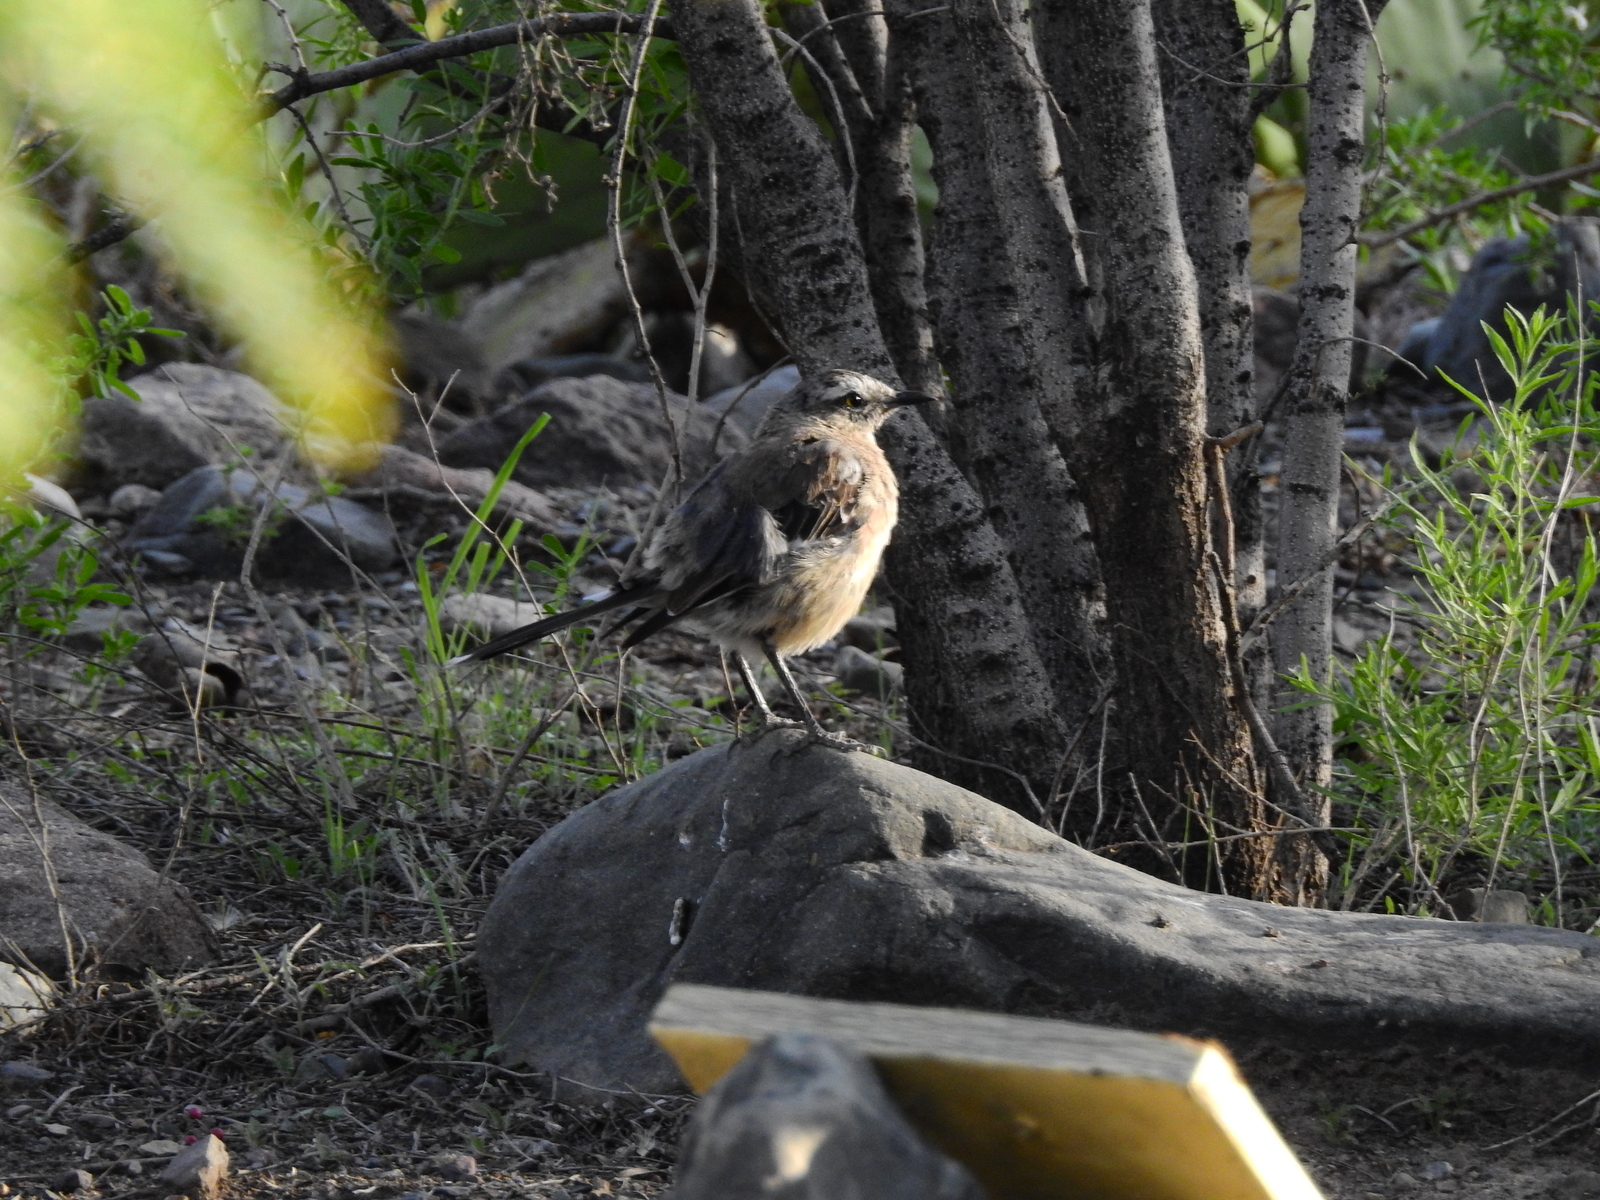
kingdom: Animalia
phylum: Chordata
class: Aves
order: Passeriformes
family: Mimidae
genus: Mimus
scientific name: Mimus saturninus
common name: Chalk-browed mockingbird
